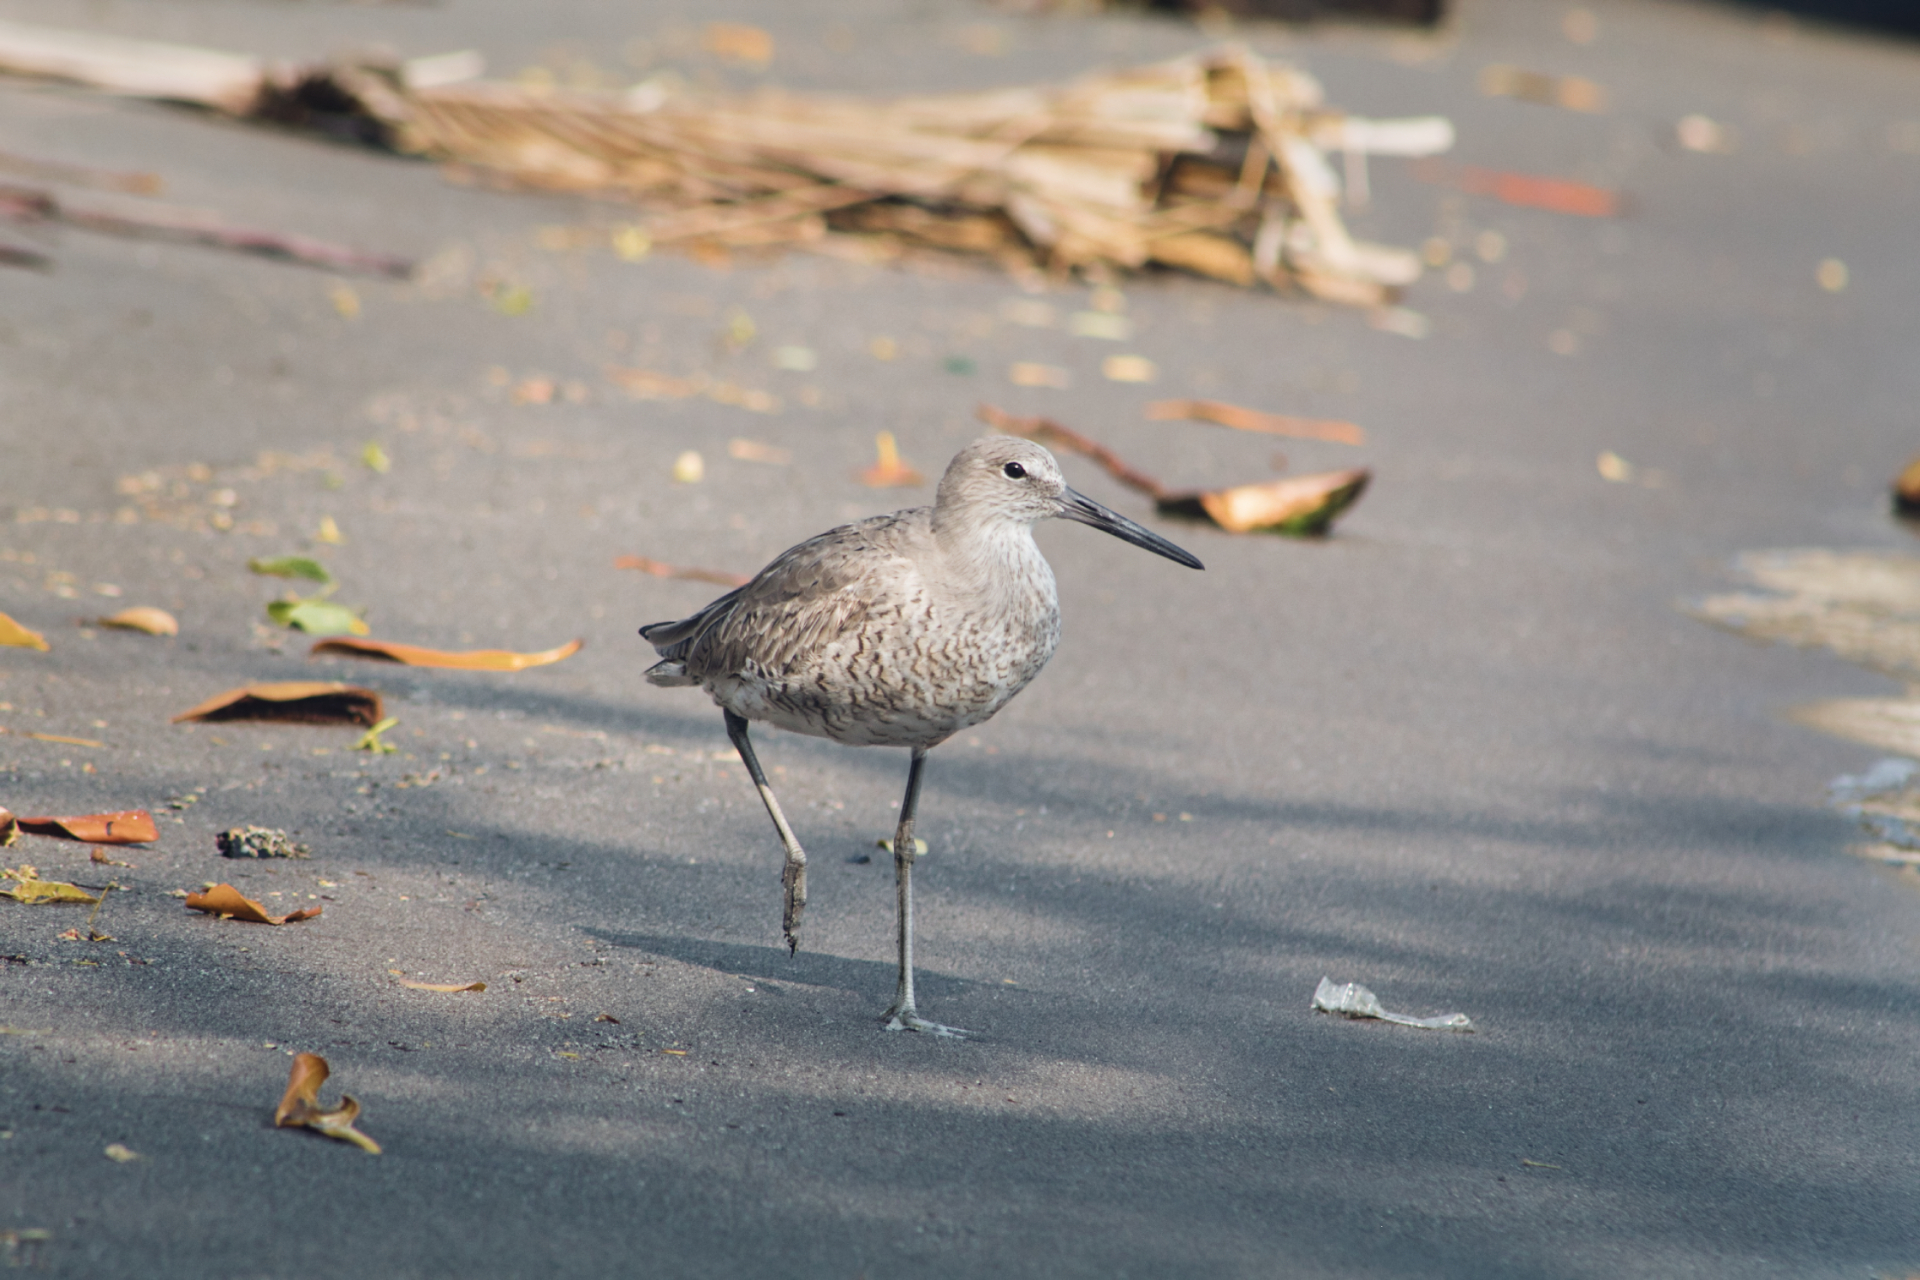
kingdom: Animalia
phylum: Chordata
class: Aves
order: Charadriiformes
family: Scolopacidae
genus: Tringa
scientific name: Tringa semipalmata
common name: Willet
